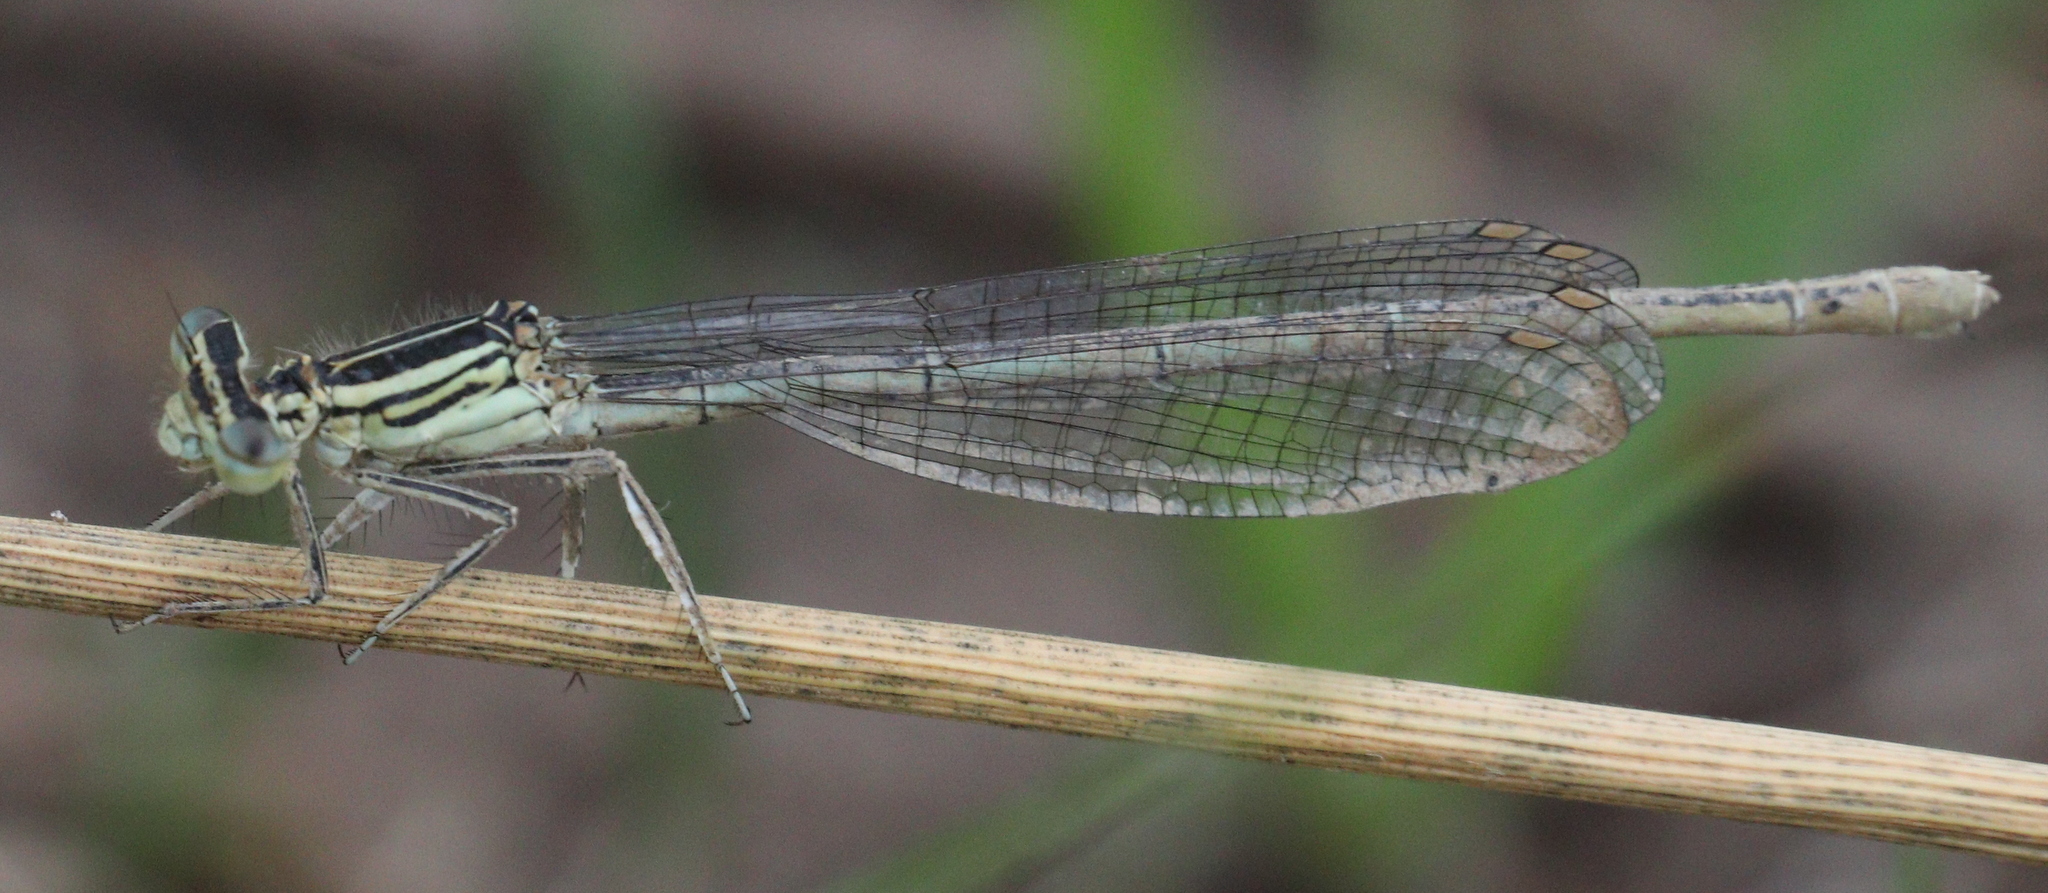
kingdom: Animalia
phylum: Arthropoda
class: Insecta
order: Odonata
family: Platycnemididae
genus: Platycnemis
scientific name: Platycnemis pennipes
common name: White-legged damselfly
